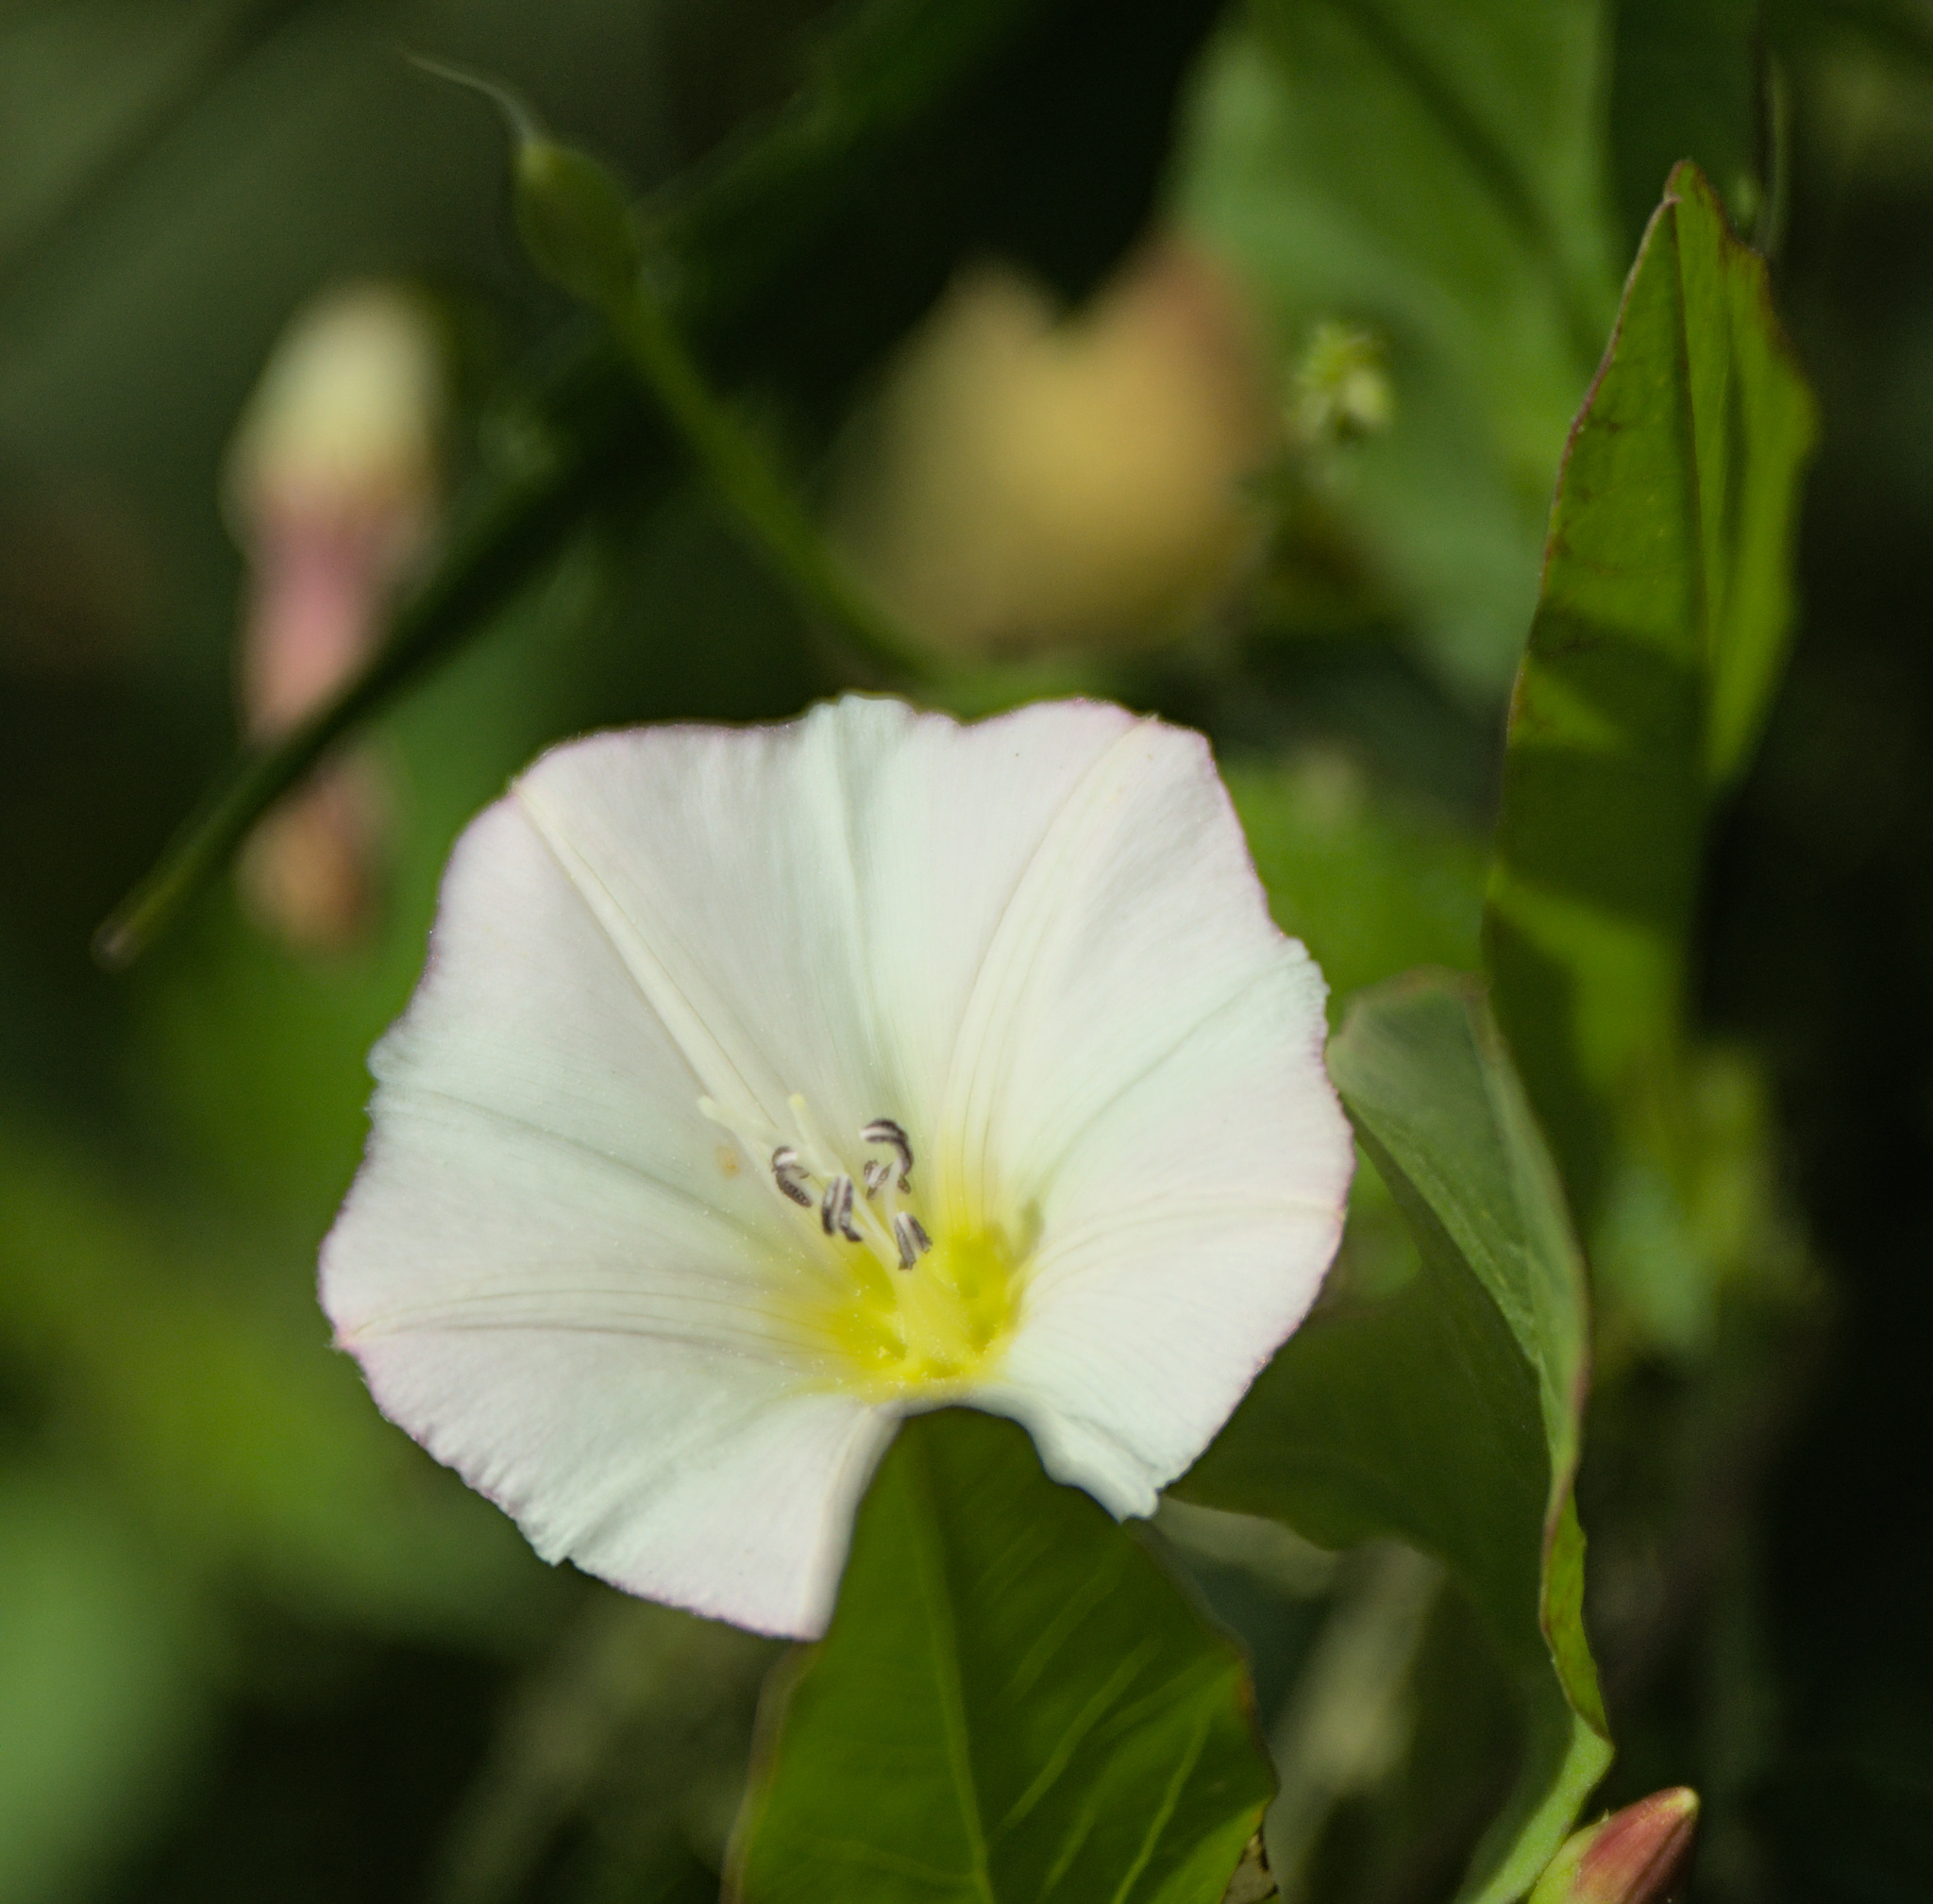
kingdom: Plantae
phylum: Tracheophyta
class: Magnoliopsida
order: Solanales
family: Convolvulaceae
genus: Convolvulus
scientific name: Convolvulus arvensis
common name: Field bindweed
